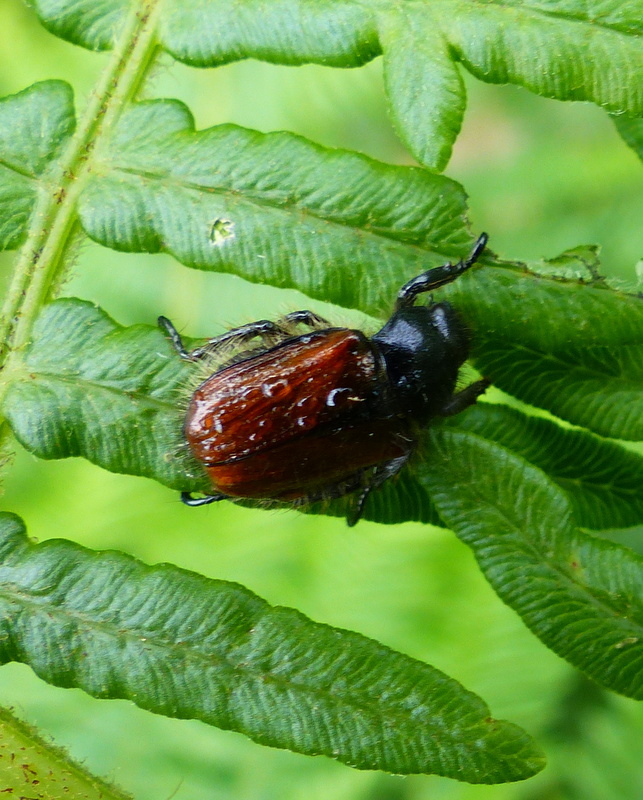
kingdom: Animalia
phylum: Arthropoda
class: Insecta
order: Coleoptera
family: Scarabaeidae
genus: Phyllopertha
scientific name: Phyllopertha horticola
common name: Garden chafer
